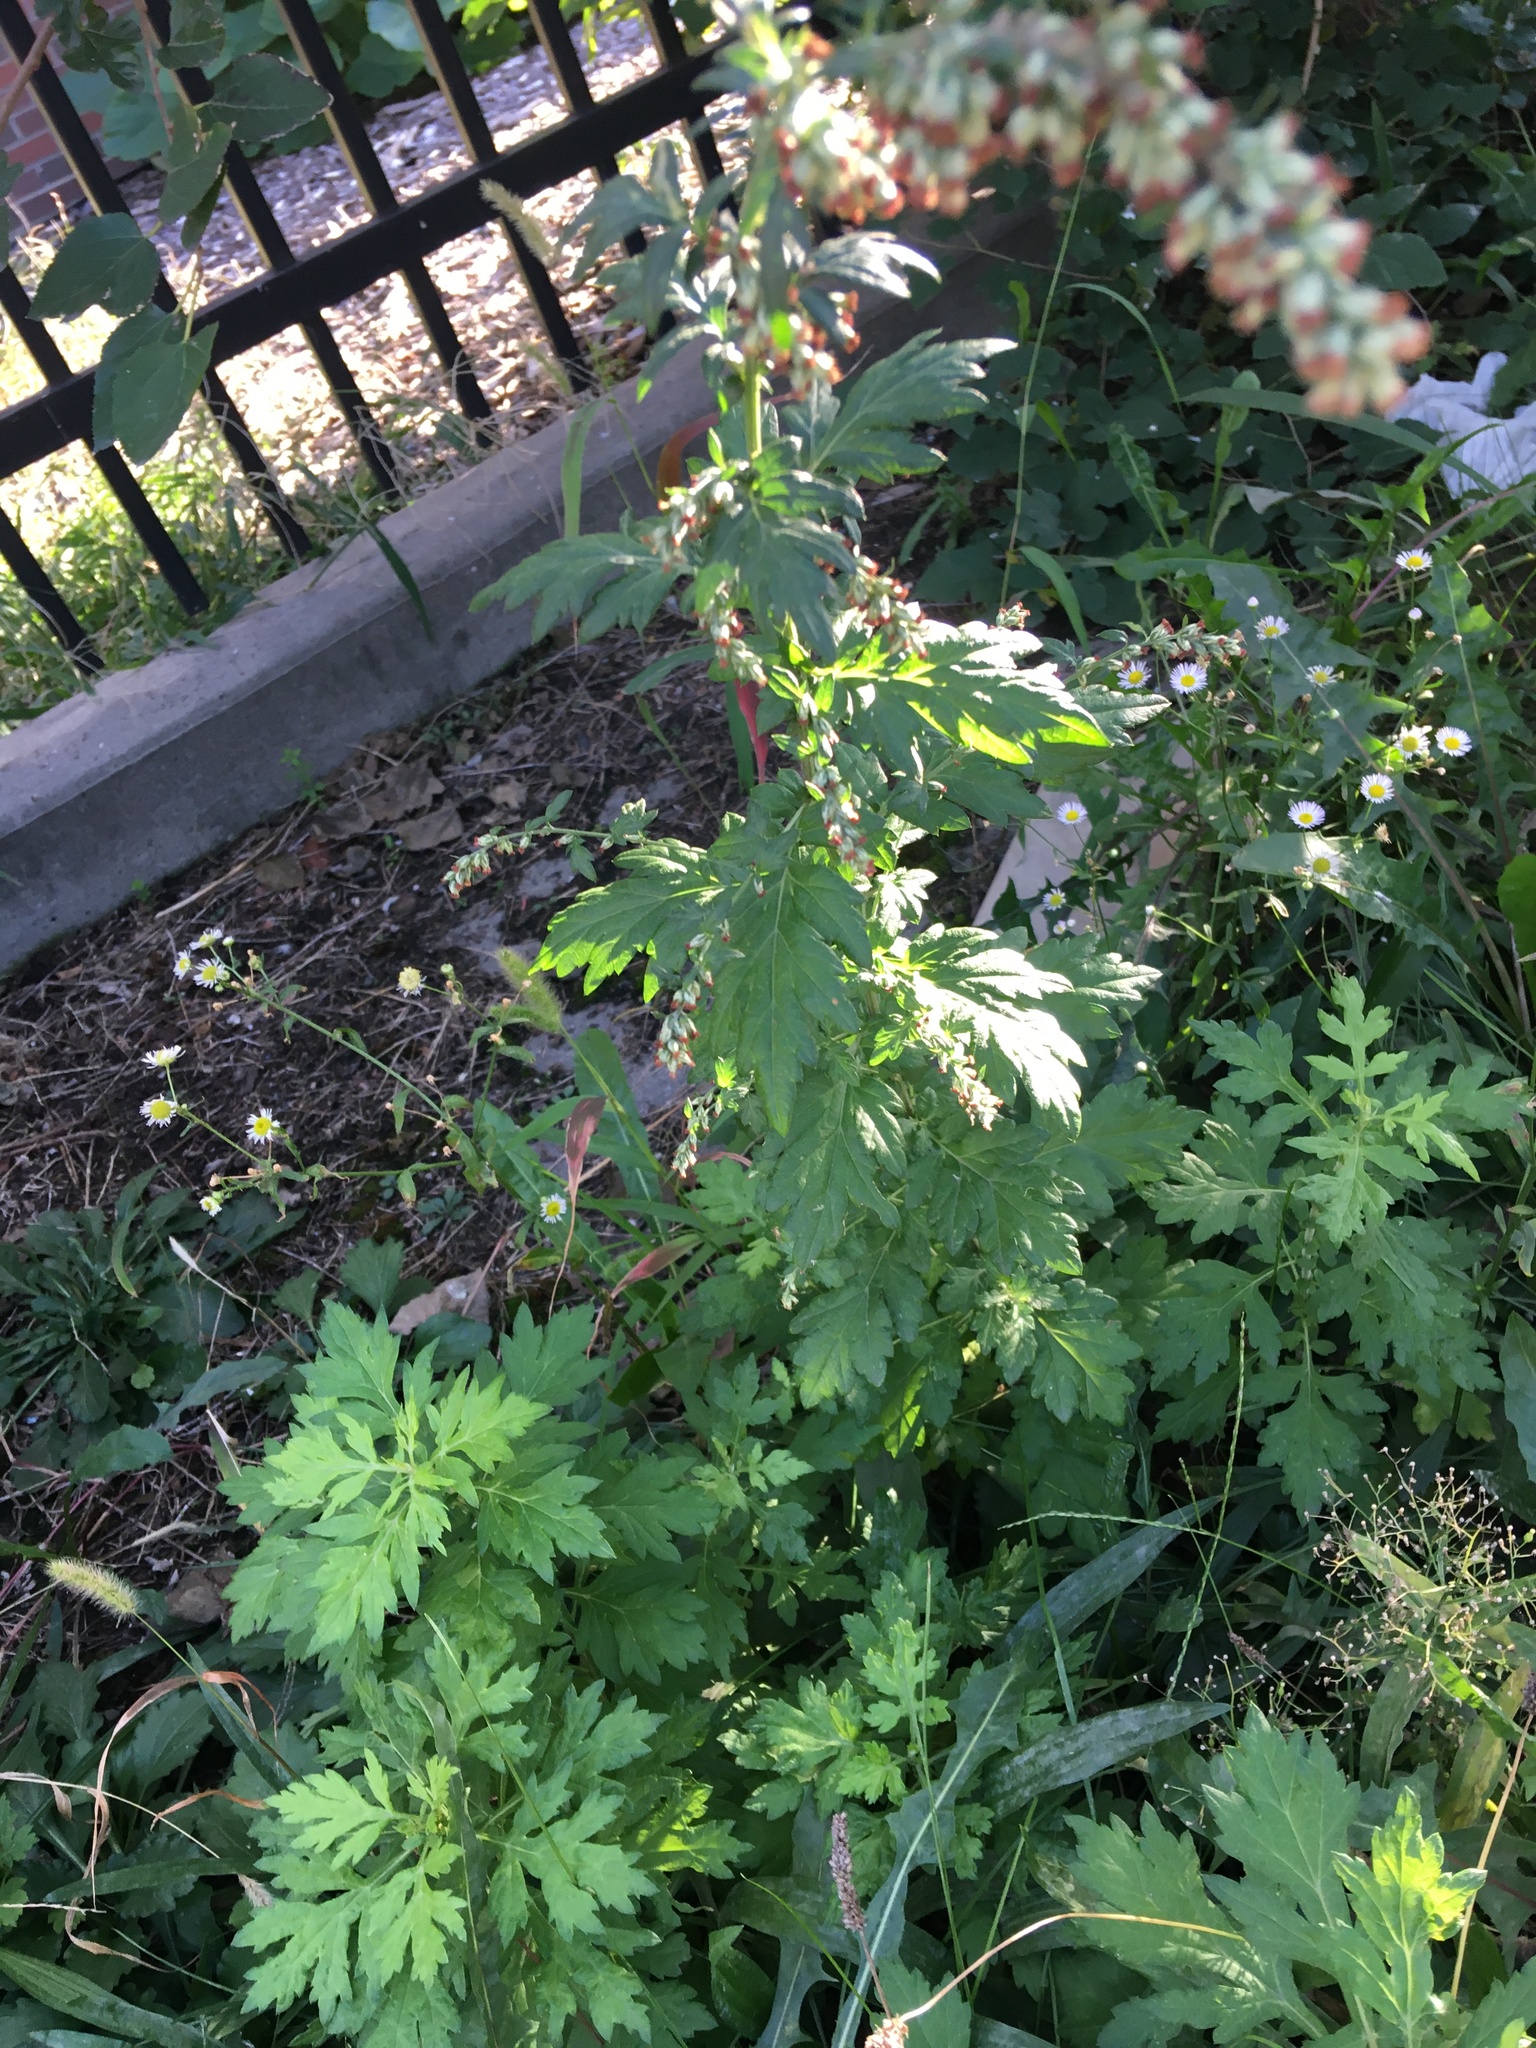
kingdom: Plantae
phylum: Tracheophyta
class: Magnoliopsida
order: Asterales
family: Asteraceae
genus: Artemisia
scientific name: Artemisia vulgaris
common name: Mugwort
